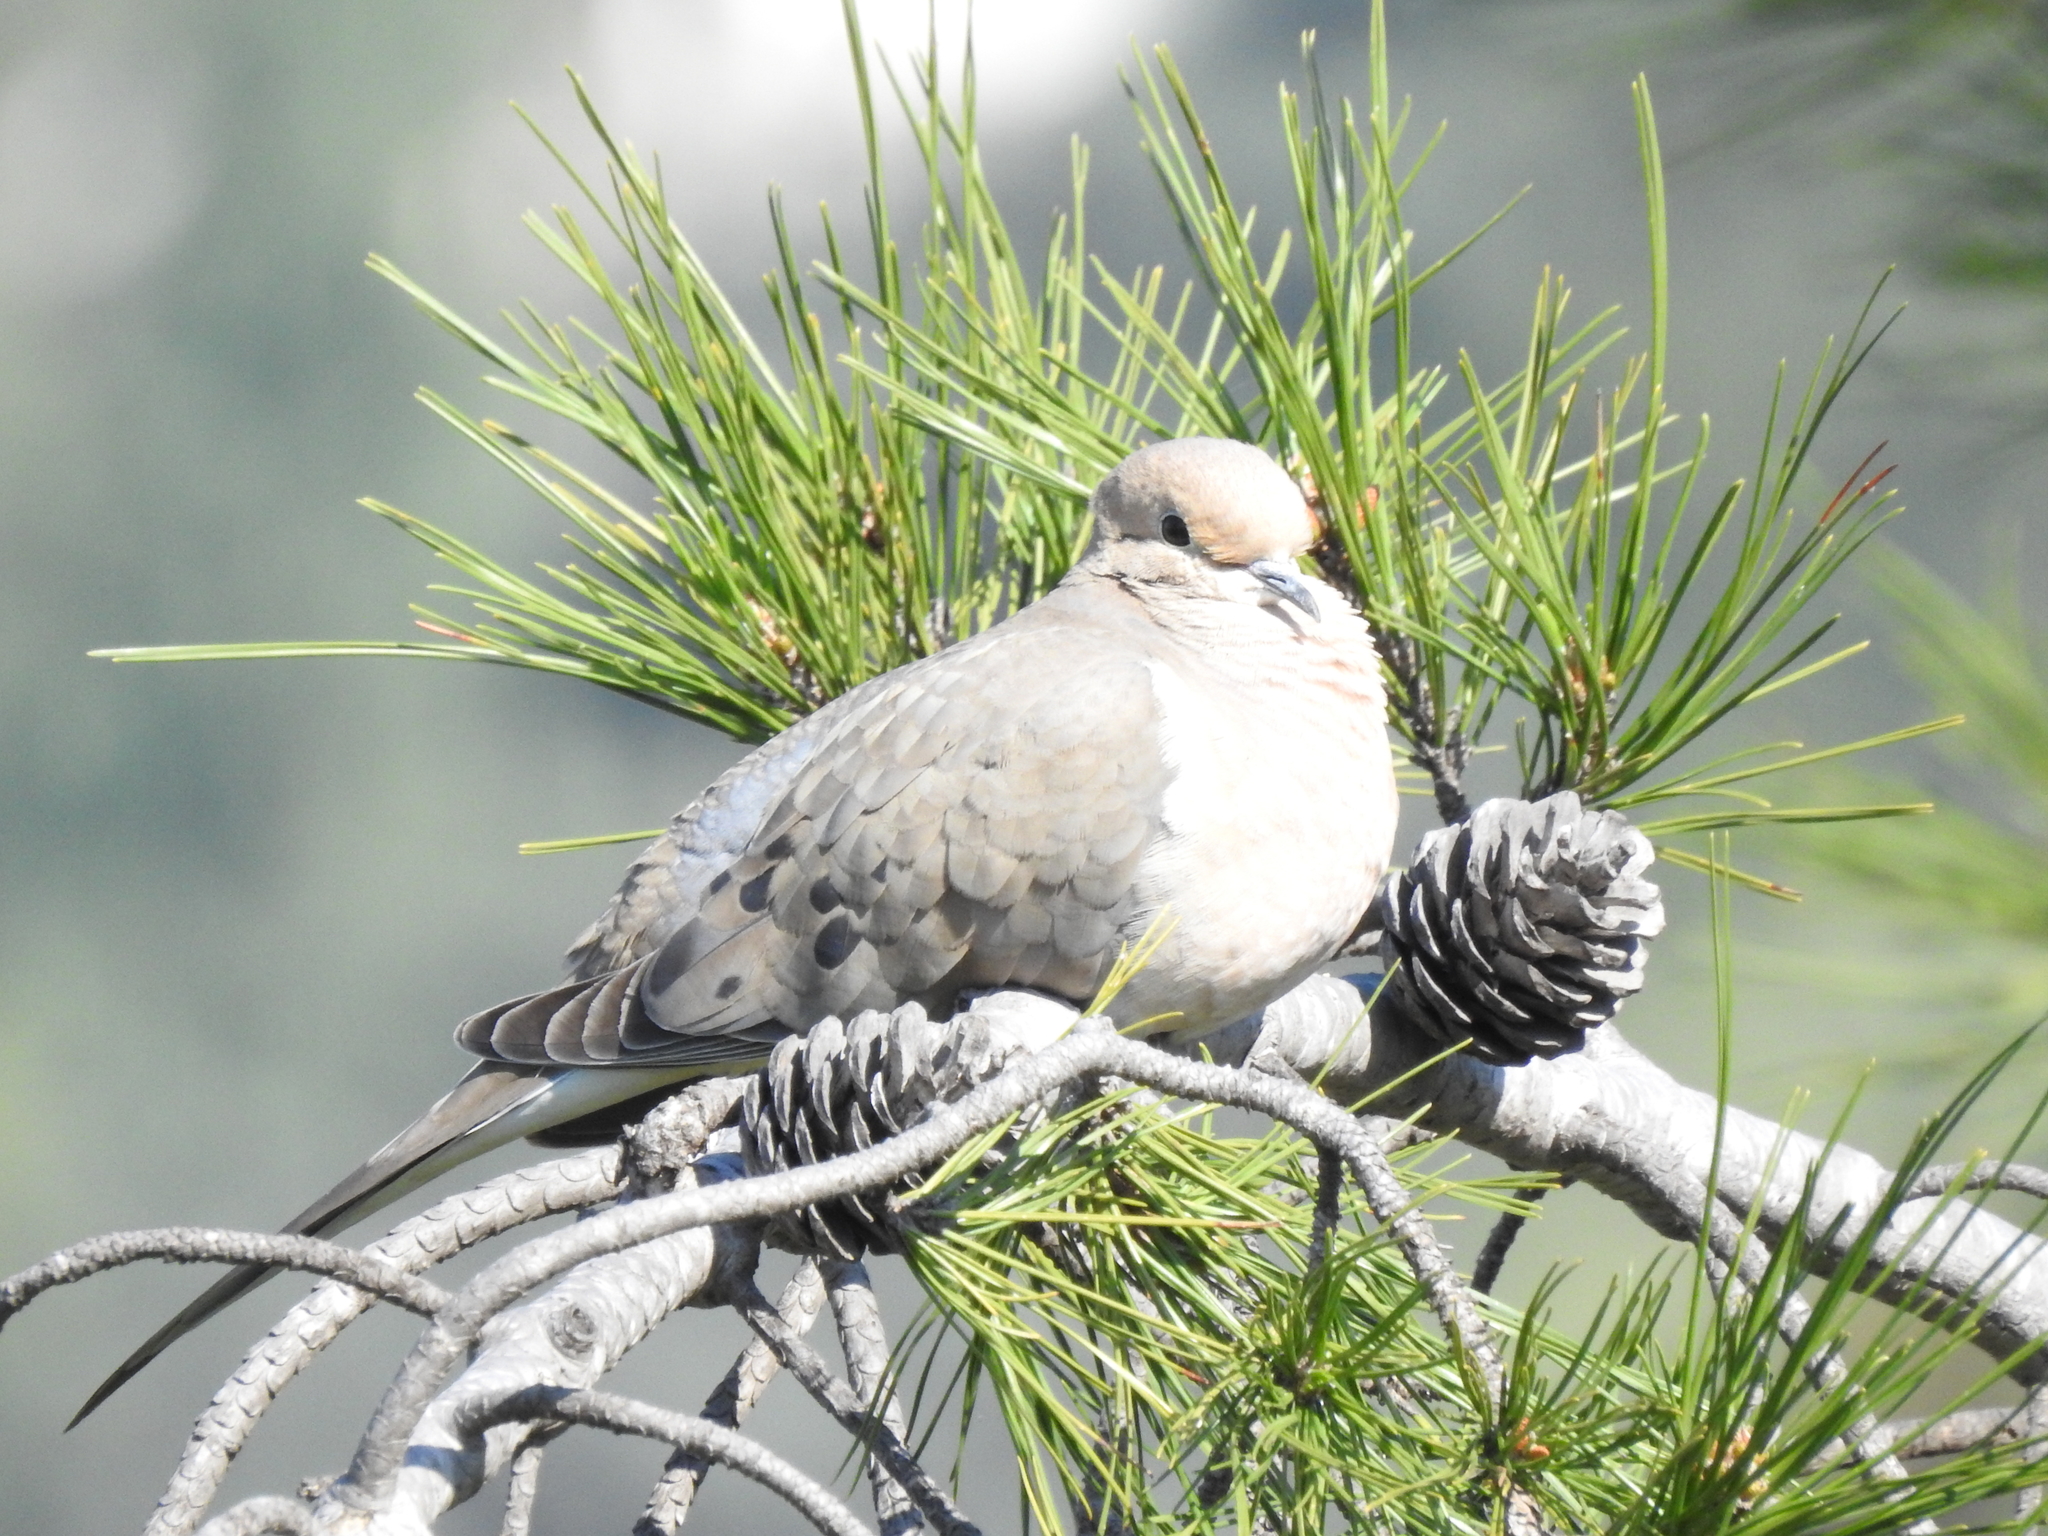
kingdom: Animalia
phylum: Chordata
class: Aves
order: Columbiformes
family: Columbidae
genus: Zenaida
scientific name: Zenaida macroura
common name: Mourning dove
